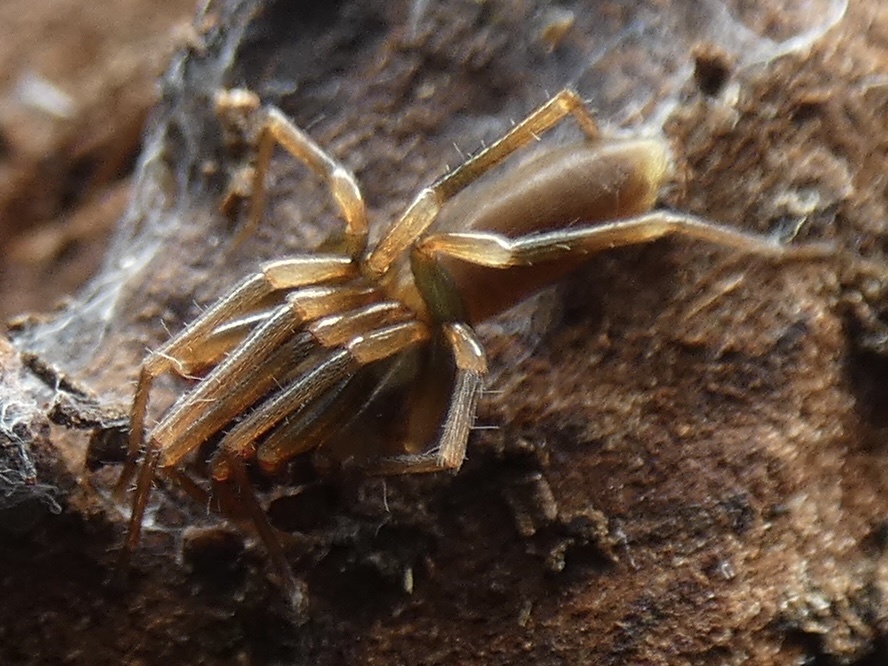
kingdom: Animalia
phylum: Arthropoda
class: Arachnida
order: Araneae
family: Dysderidae
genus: Harpactea
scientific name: Harpactea hombergi
